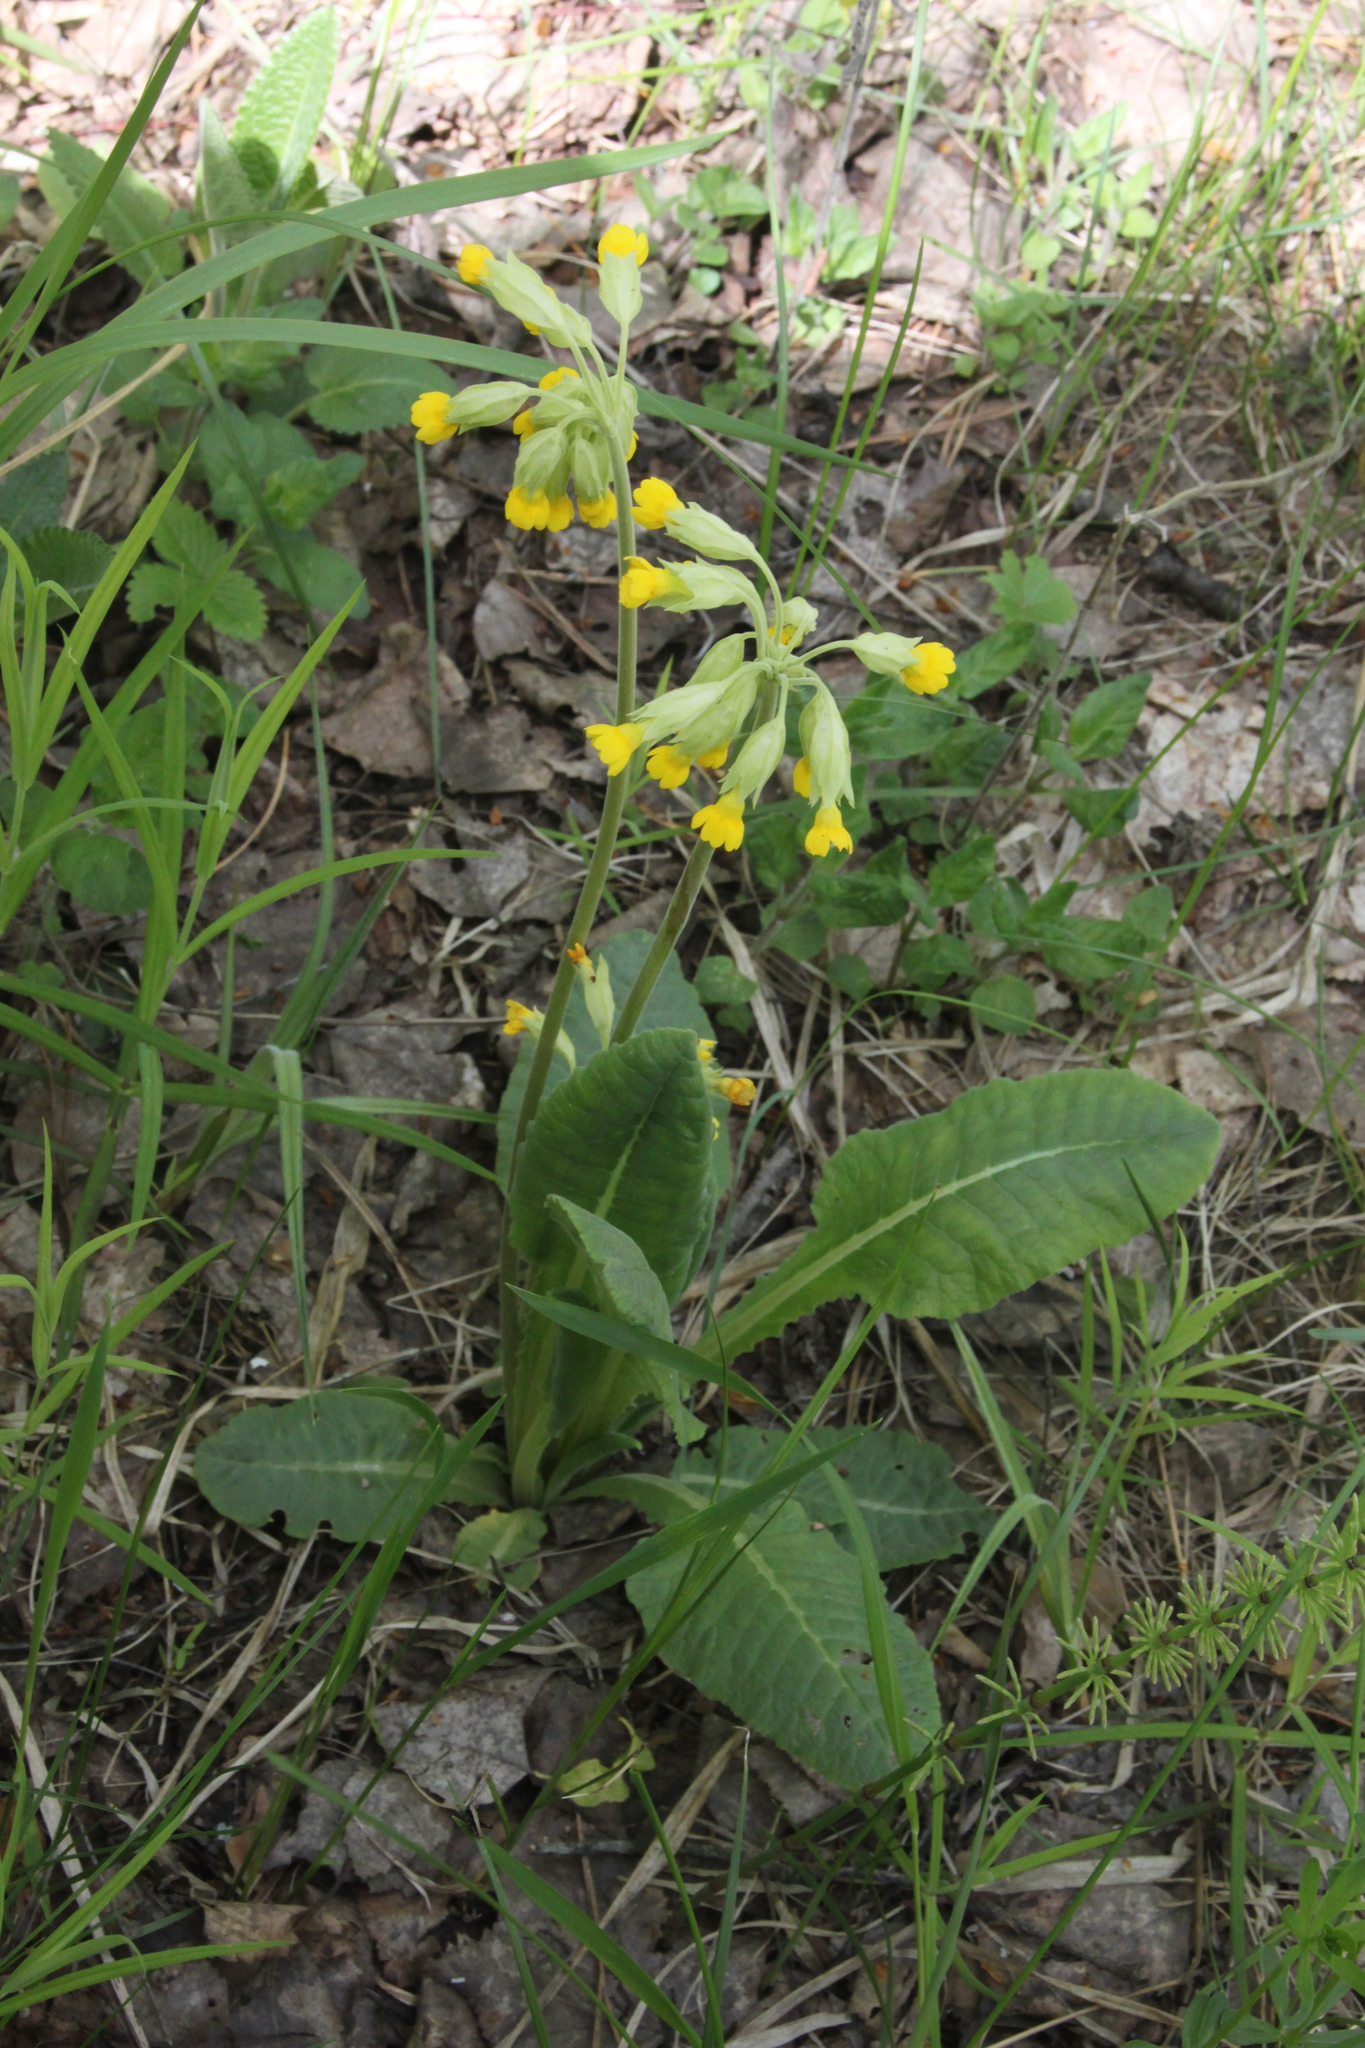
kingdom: Plantae
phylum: Tracheophyta
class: Magnoliopsida
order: Ericales
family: Primulaceae
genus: Primula
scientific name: Primula veris
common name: Cowslip
